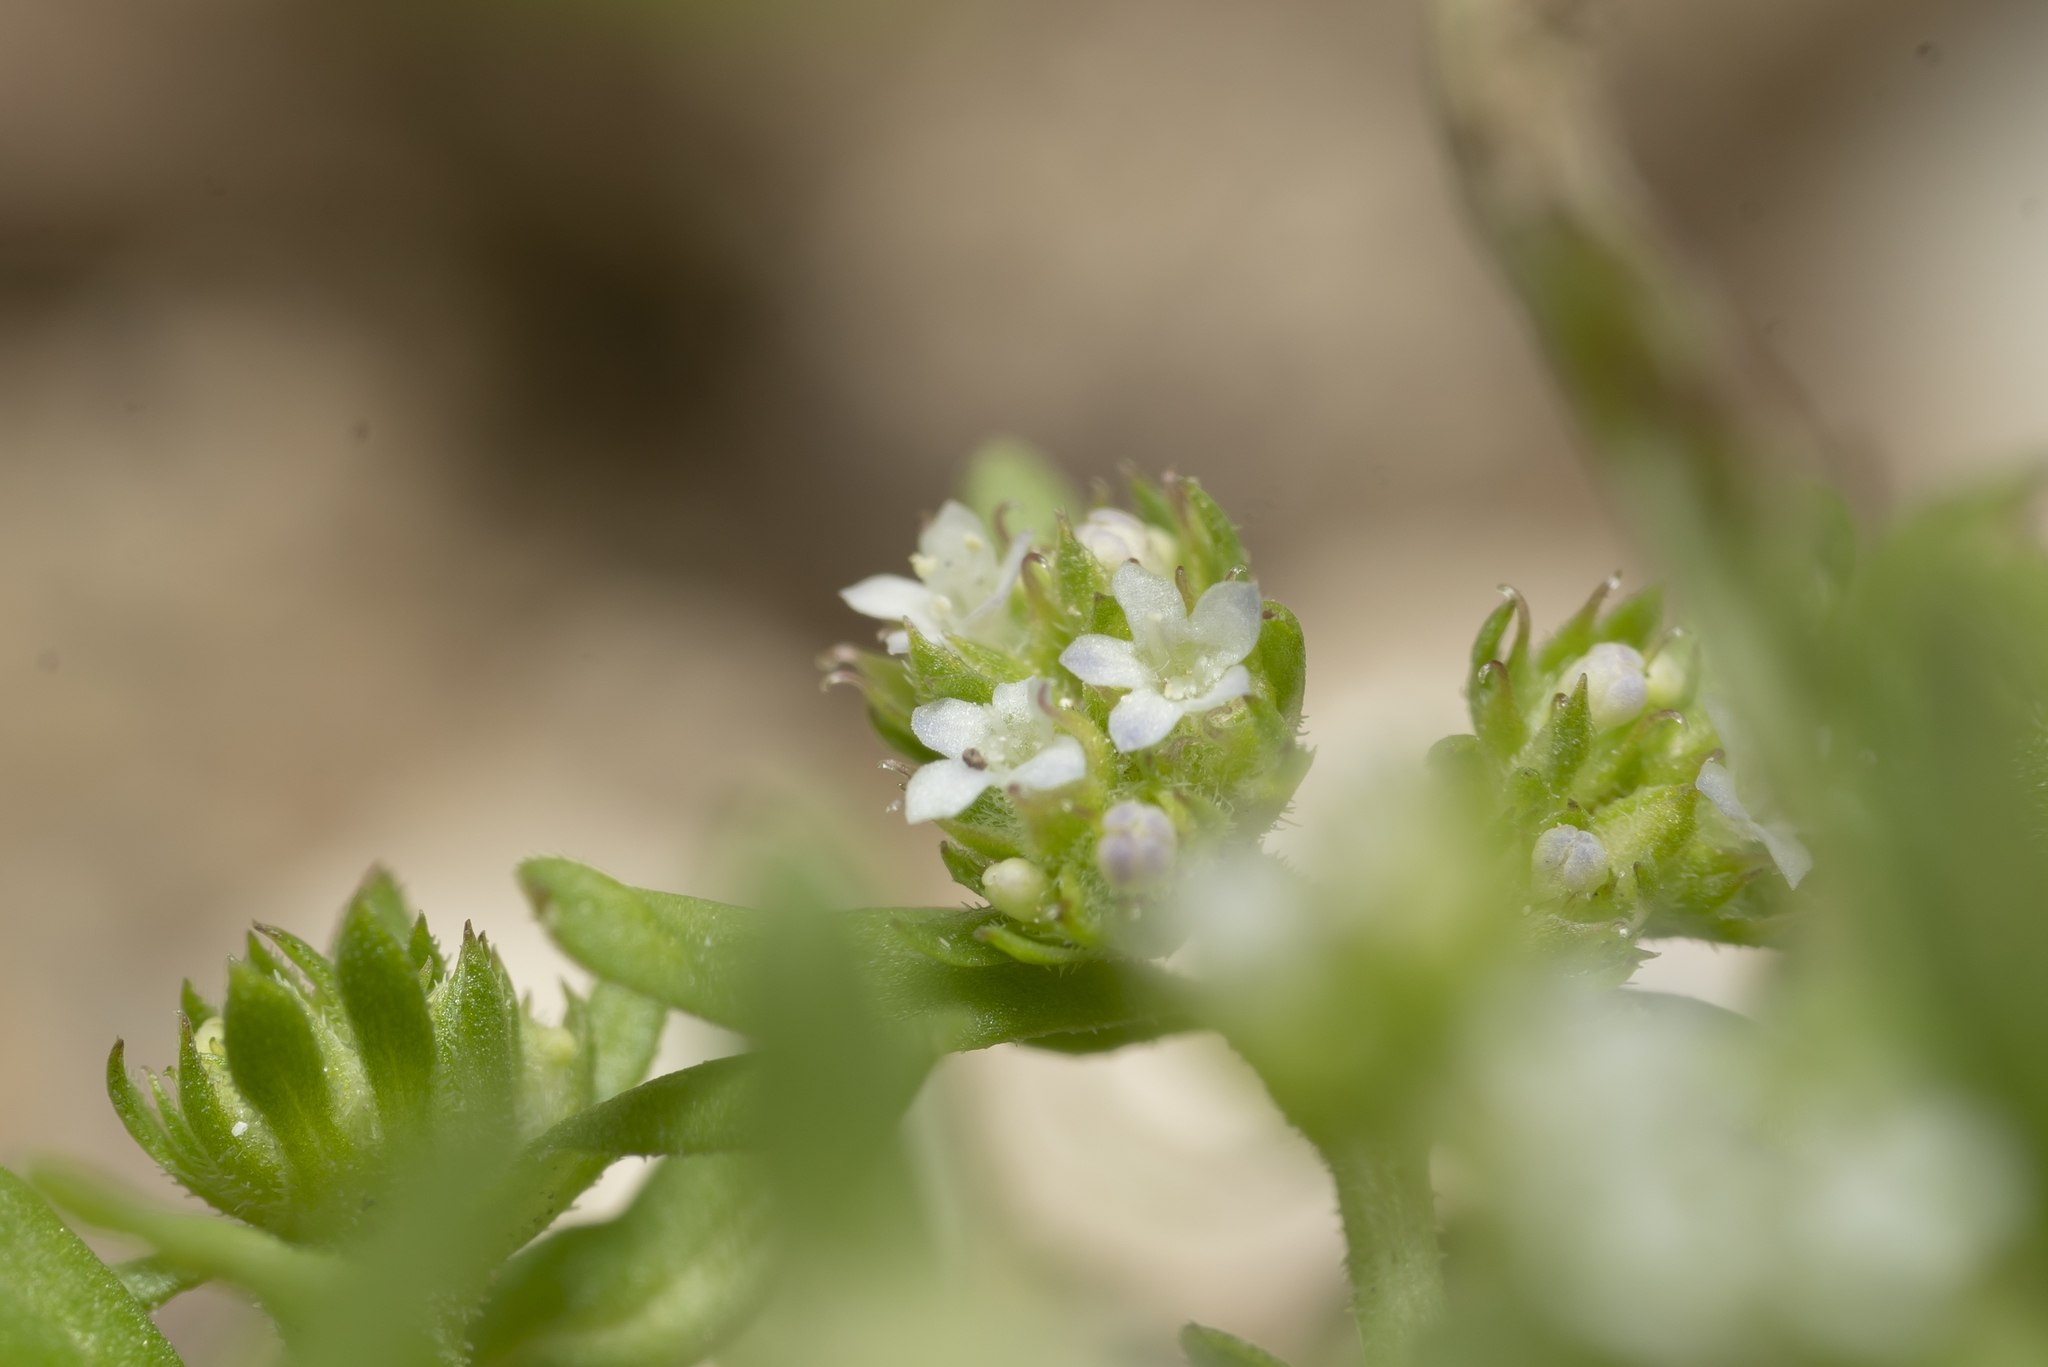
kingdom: Plantae
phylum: Tracheophyta
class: Magnoliopsida
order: Dipsacales
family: Caprifoliaceae
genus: Valerianella
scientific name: Valerianella discoidea
